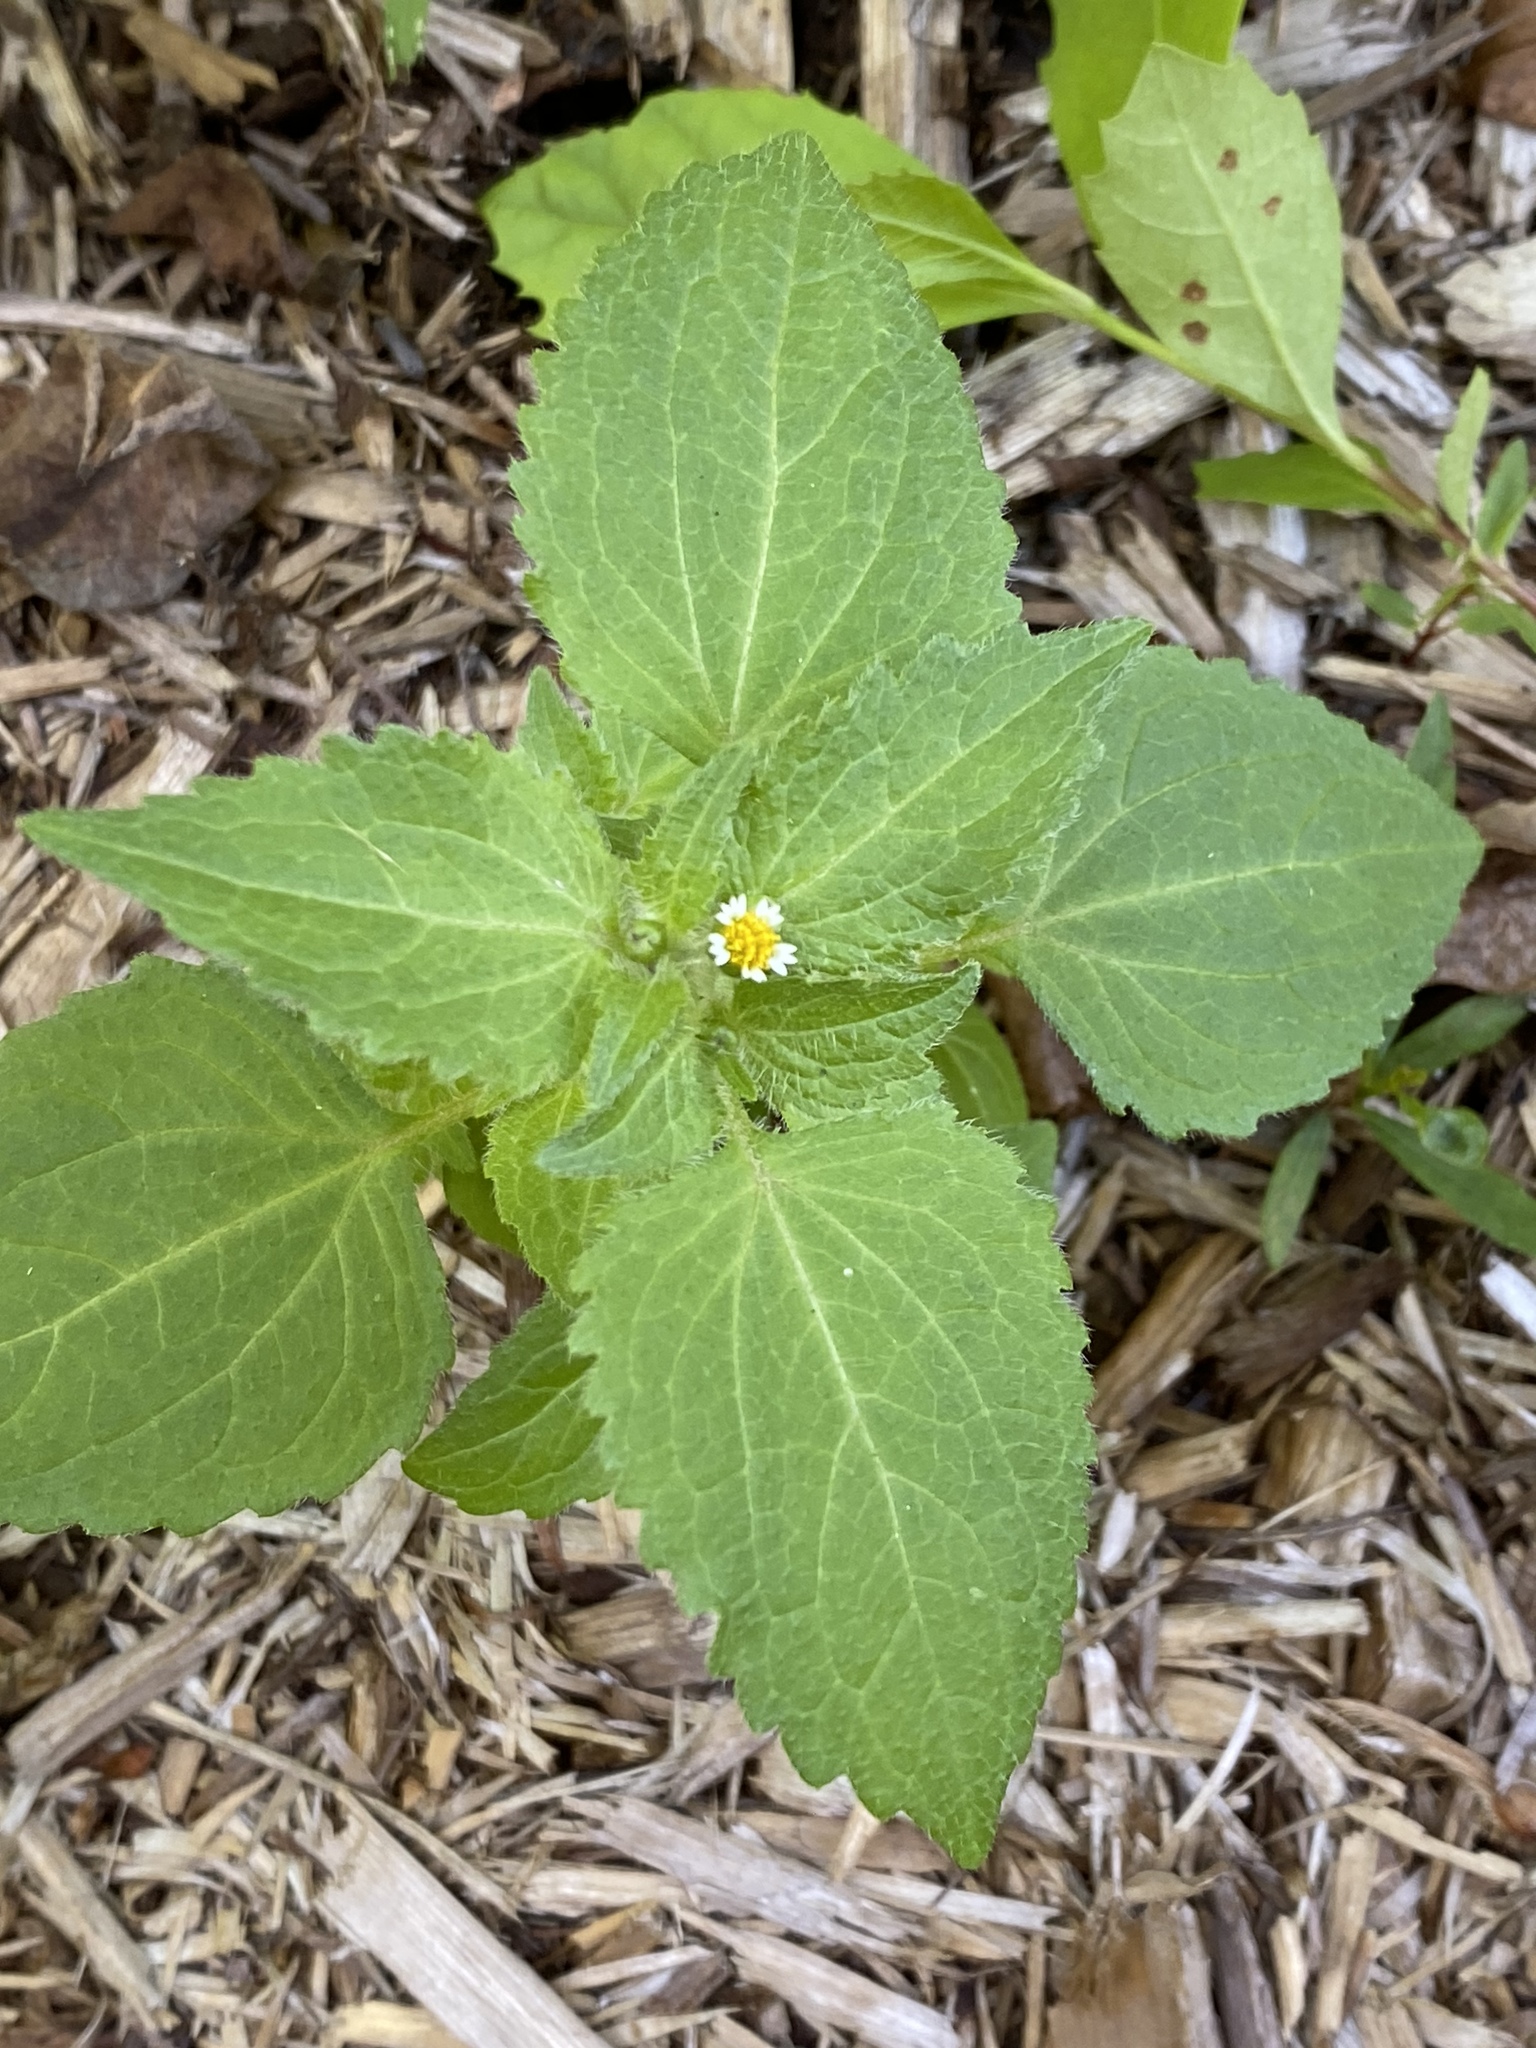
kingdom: Plantae
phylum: Tracheophyta
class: Magnoliopsida
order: Asterales
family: Asteraceae
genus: Galinsoga
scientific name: Galinsoga quadriradiata
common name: Shaggy soldier
